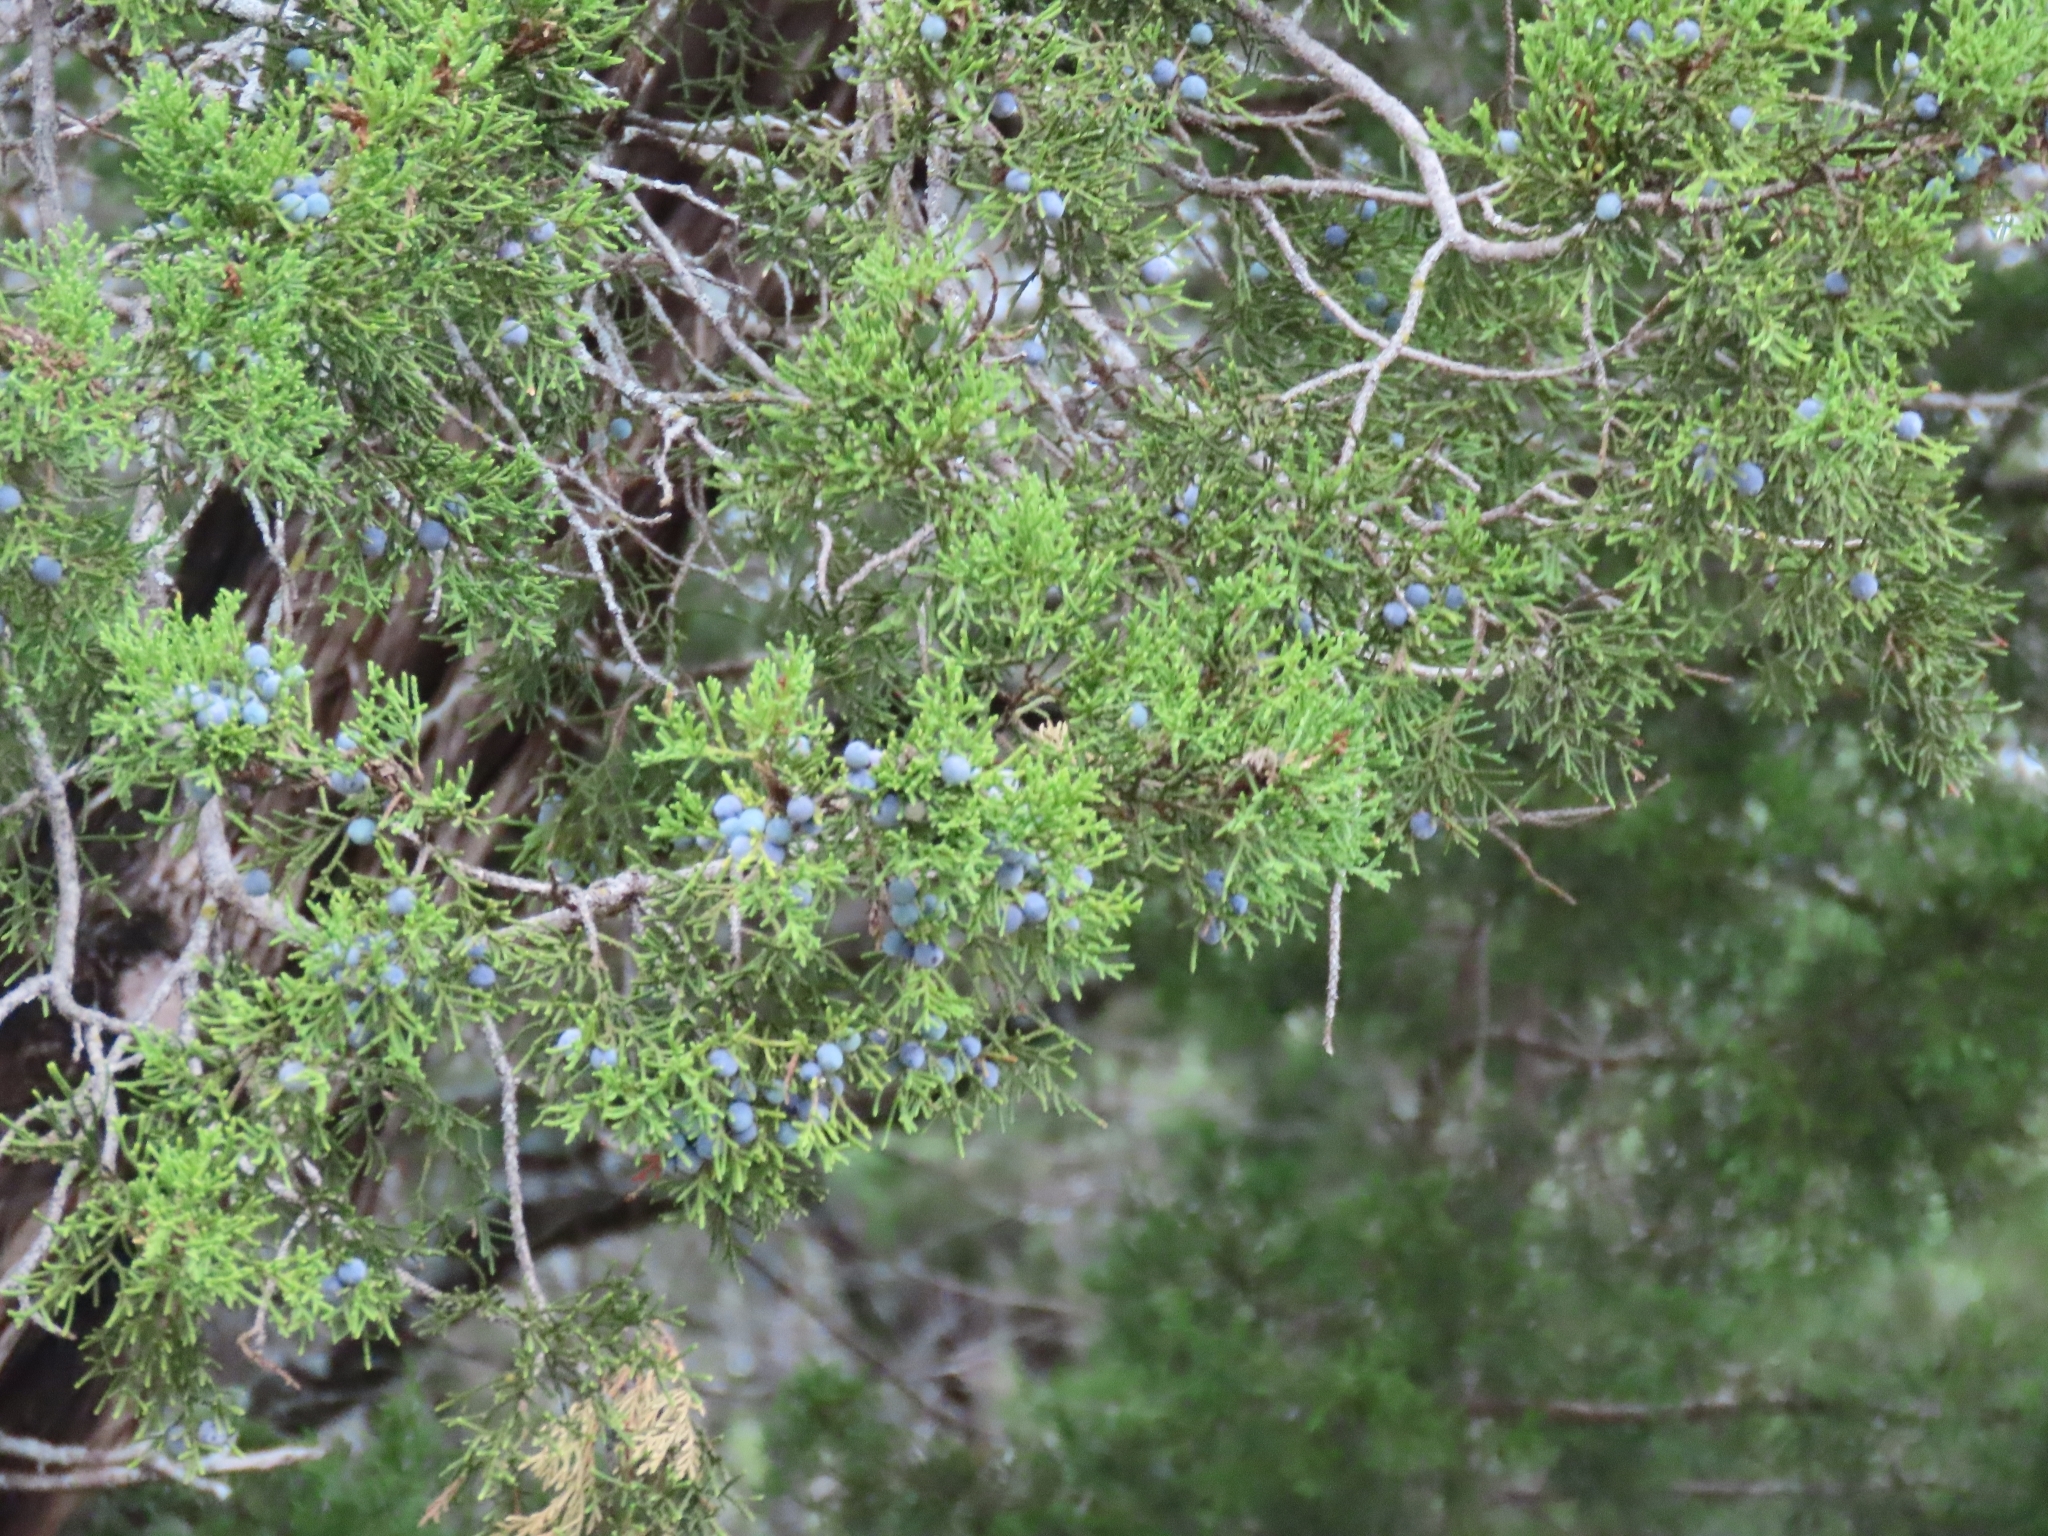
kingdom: Plantae
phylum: Tracheophyta
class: Pinopsida
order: Pinales
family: Cupressaceae
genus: Juniperus
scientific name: Juniperus ashei
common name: Mexican juniper
